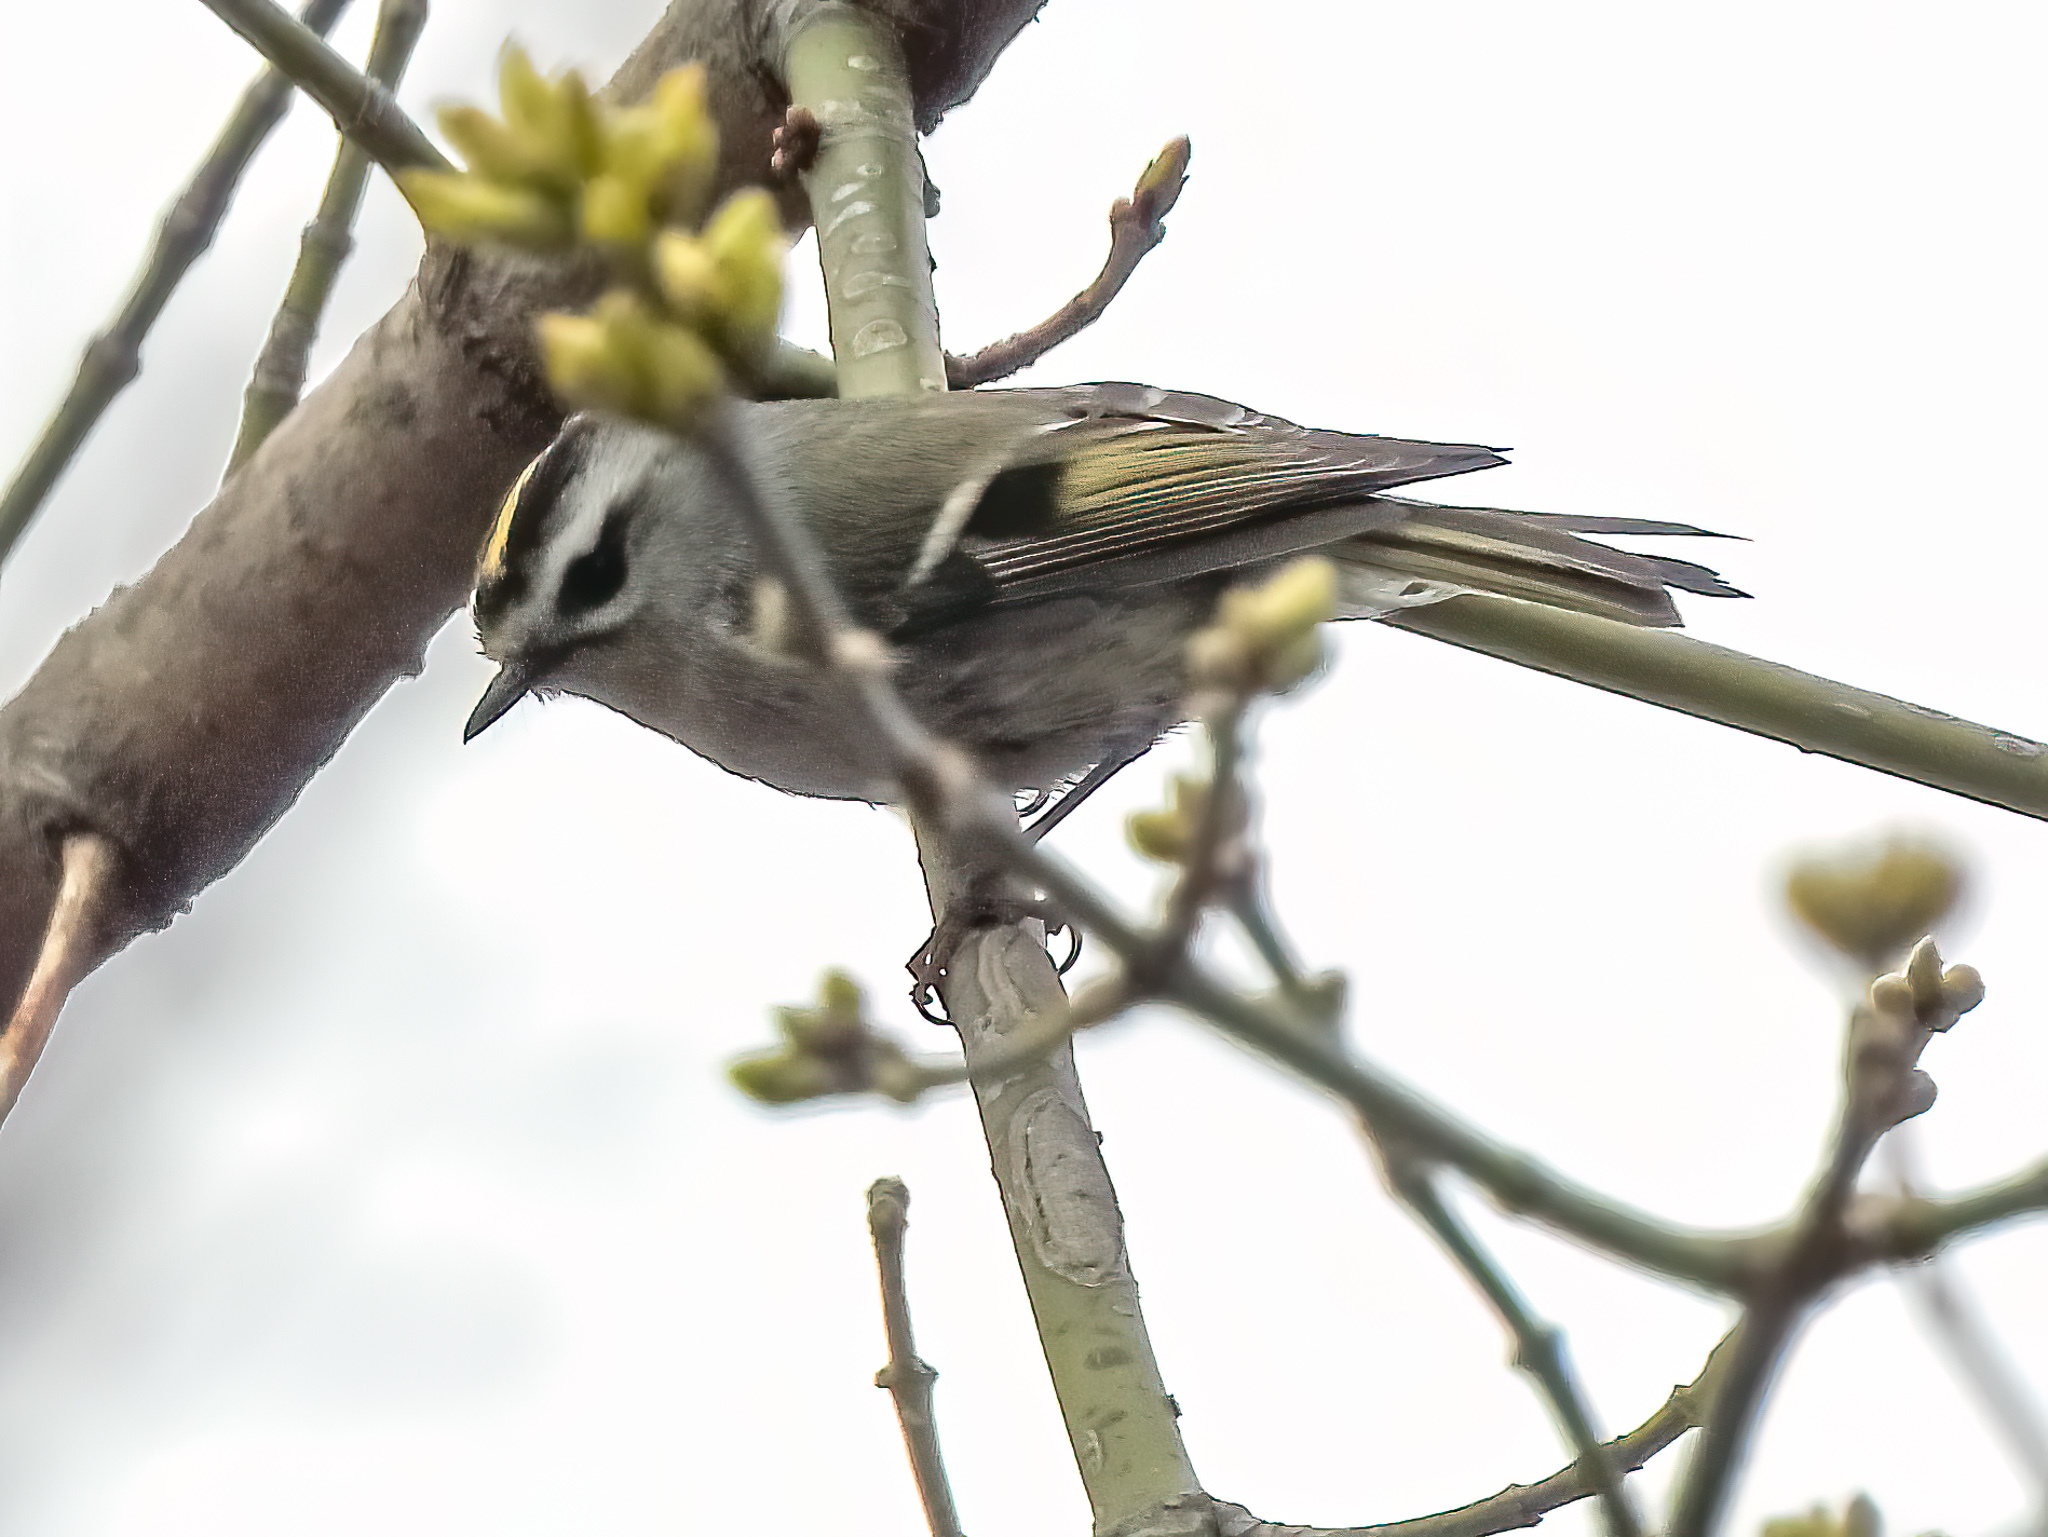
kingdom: Animalia
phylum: Chordata
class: Aves
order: Passeriformes
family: Regulidae
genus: Regulus
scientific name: Regulus satrapa
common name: Golden-crowned kinglet
